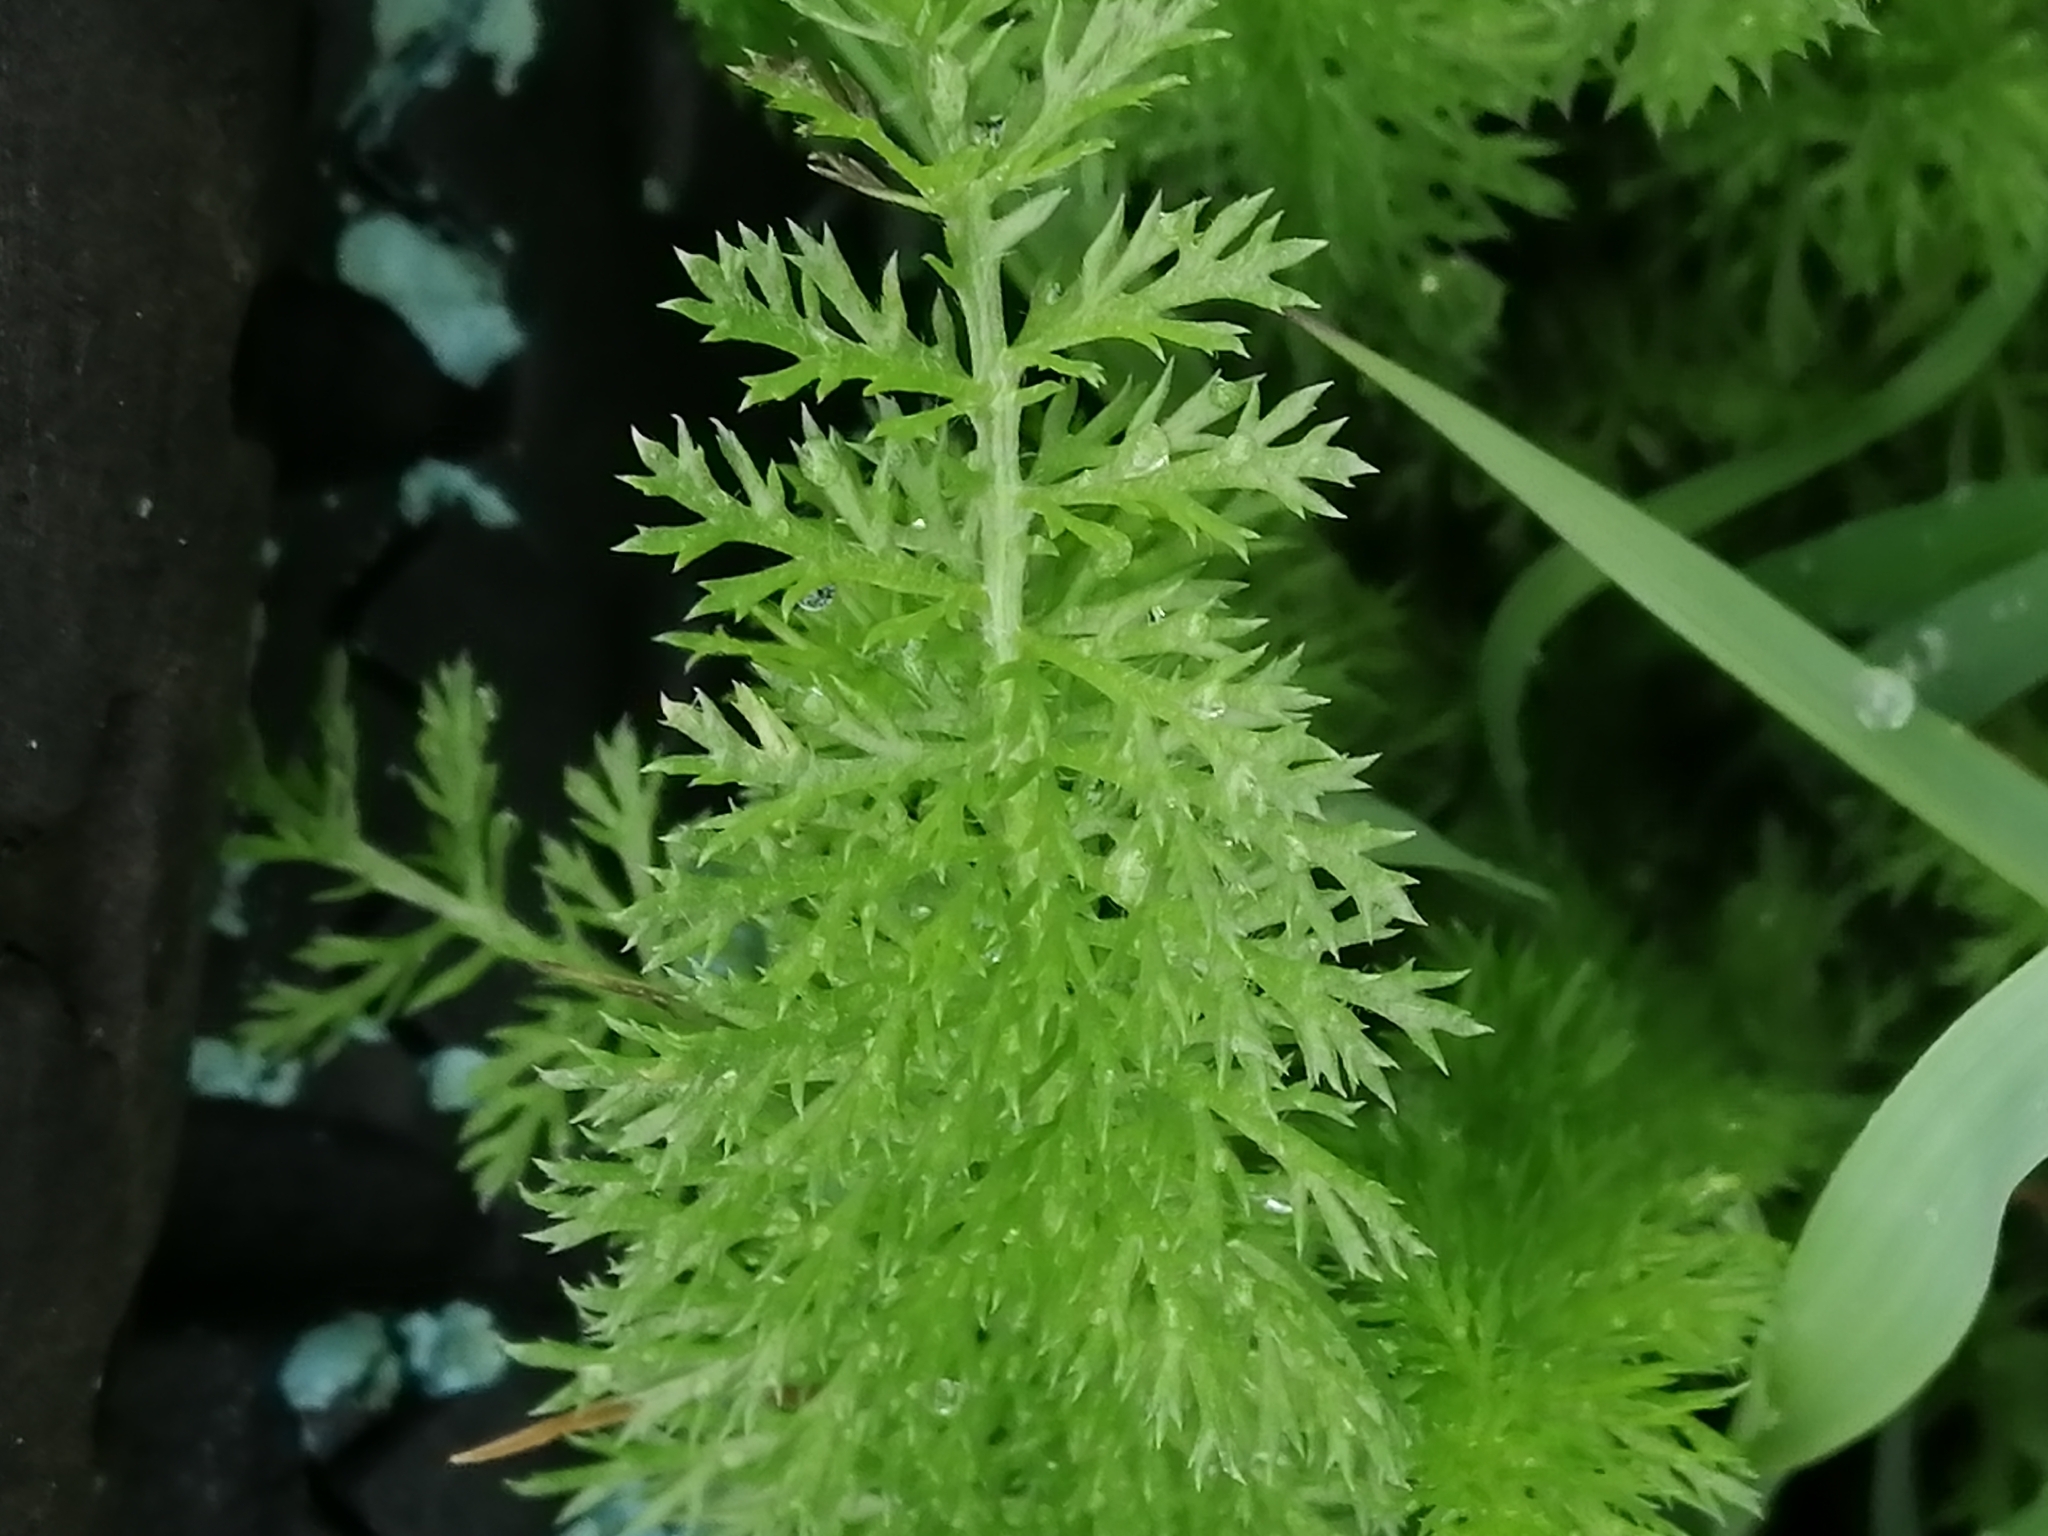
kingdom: Plantae
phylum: Tracheophyta
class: Magnoliopsida
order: Asterales
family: Asteraceae
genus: Achillea
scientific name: Achillea millefolium
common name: Yarrow
